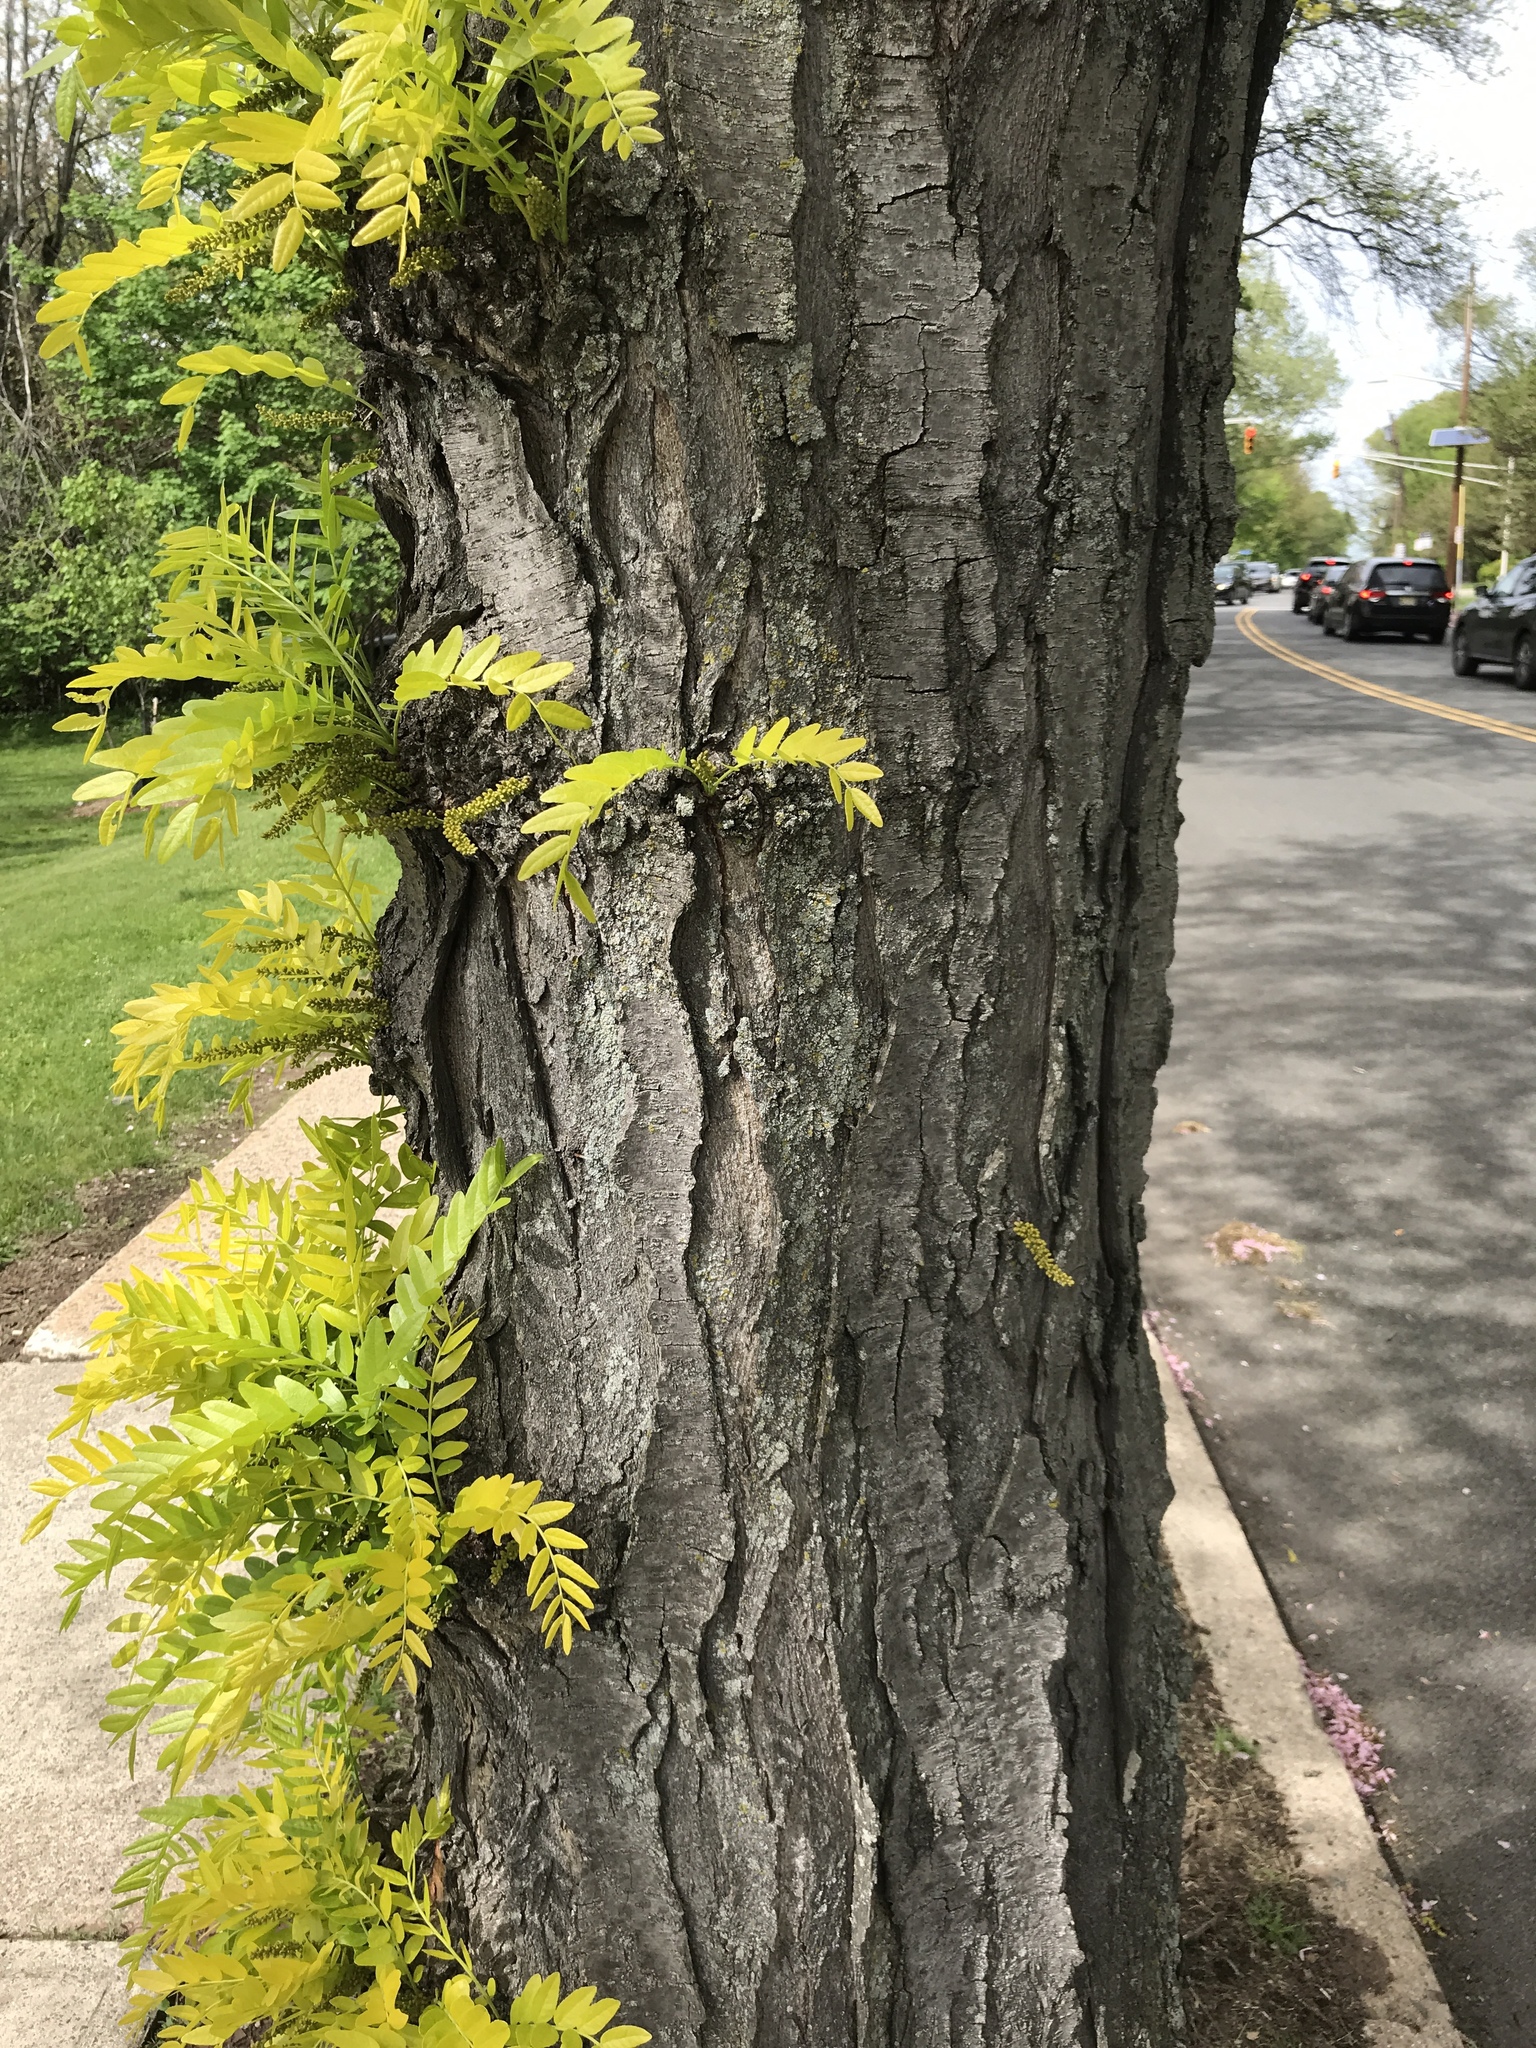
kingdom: Plantae
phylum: Tracheophyta
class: Magnoliopsida
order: Fabales
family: Fabaceae
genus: Gleditsia
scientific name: Gleditsia triacanthos
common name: Common honeylocust
